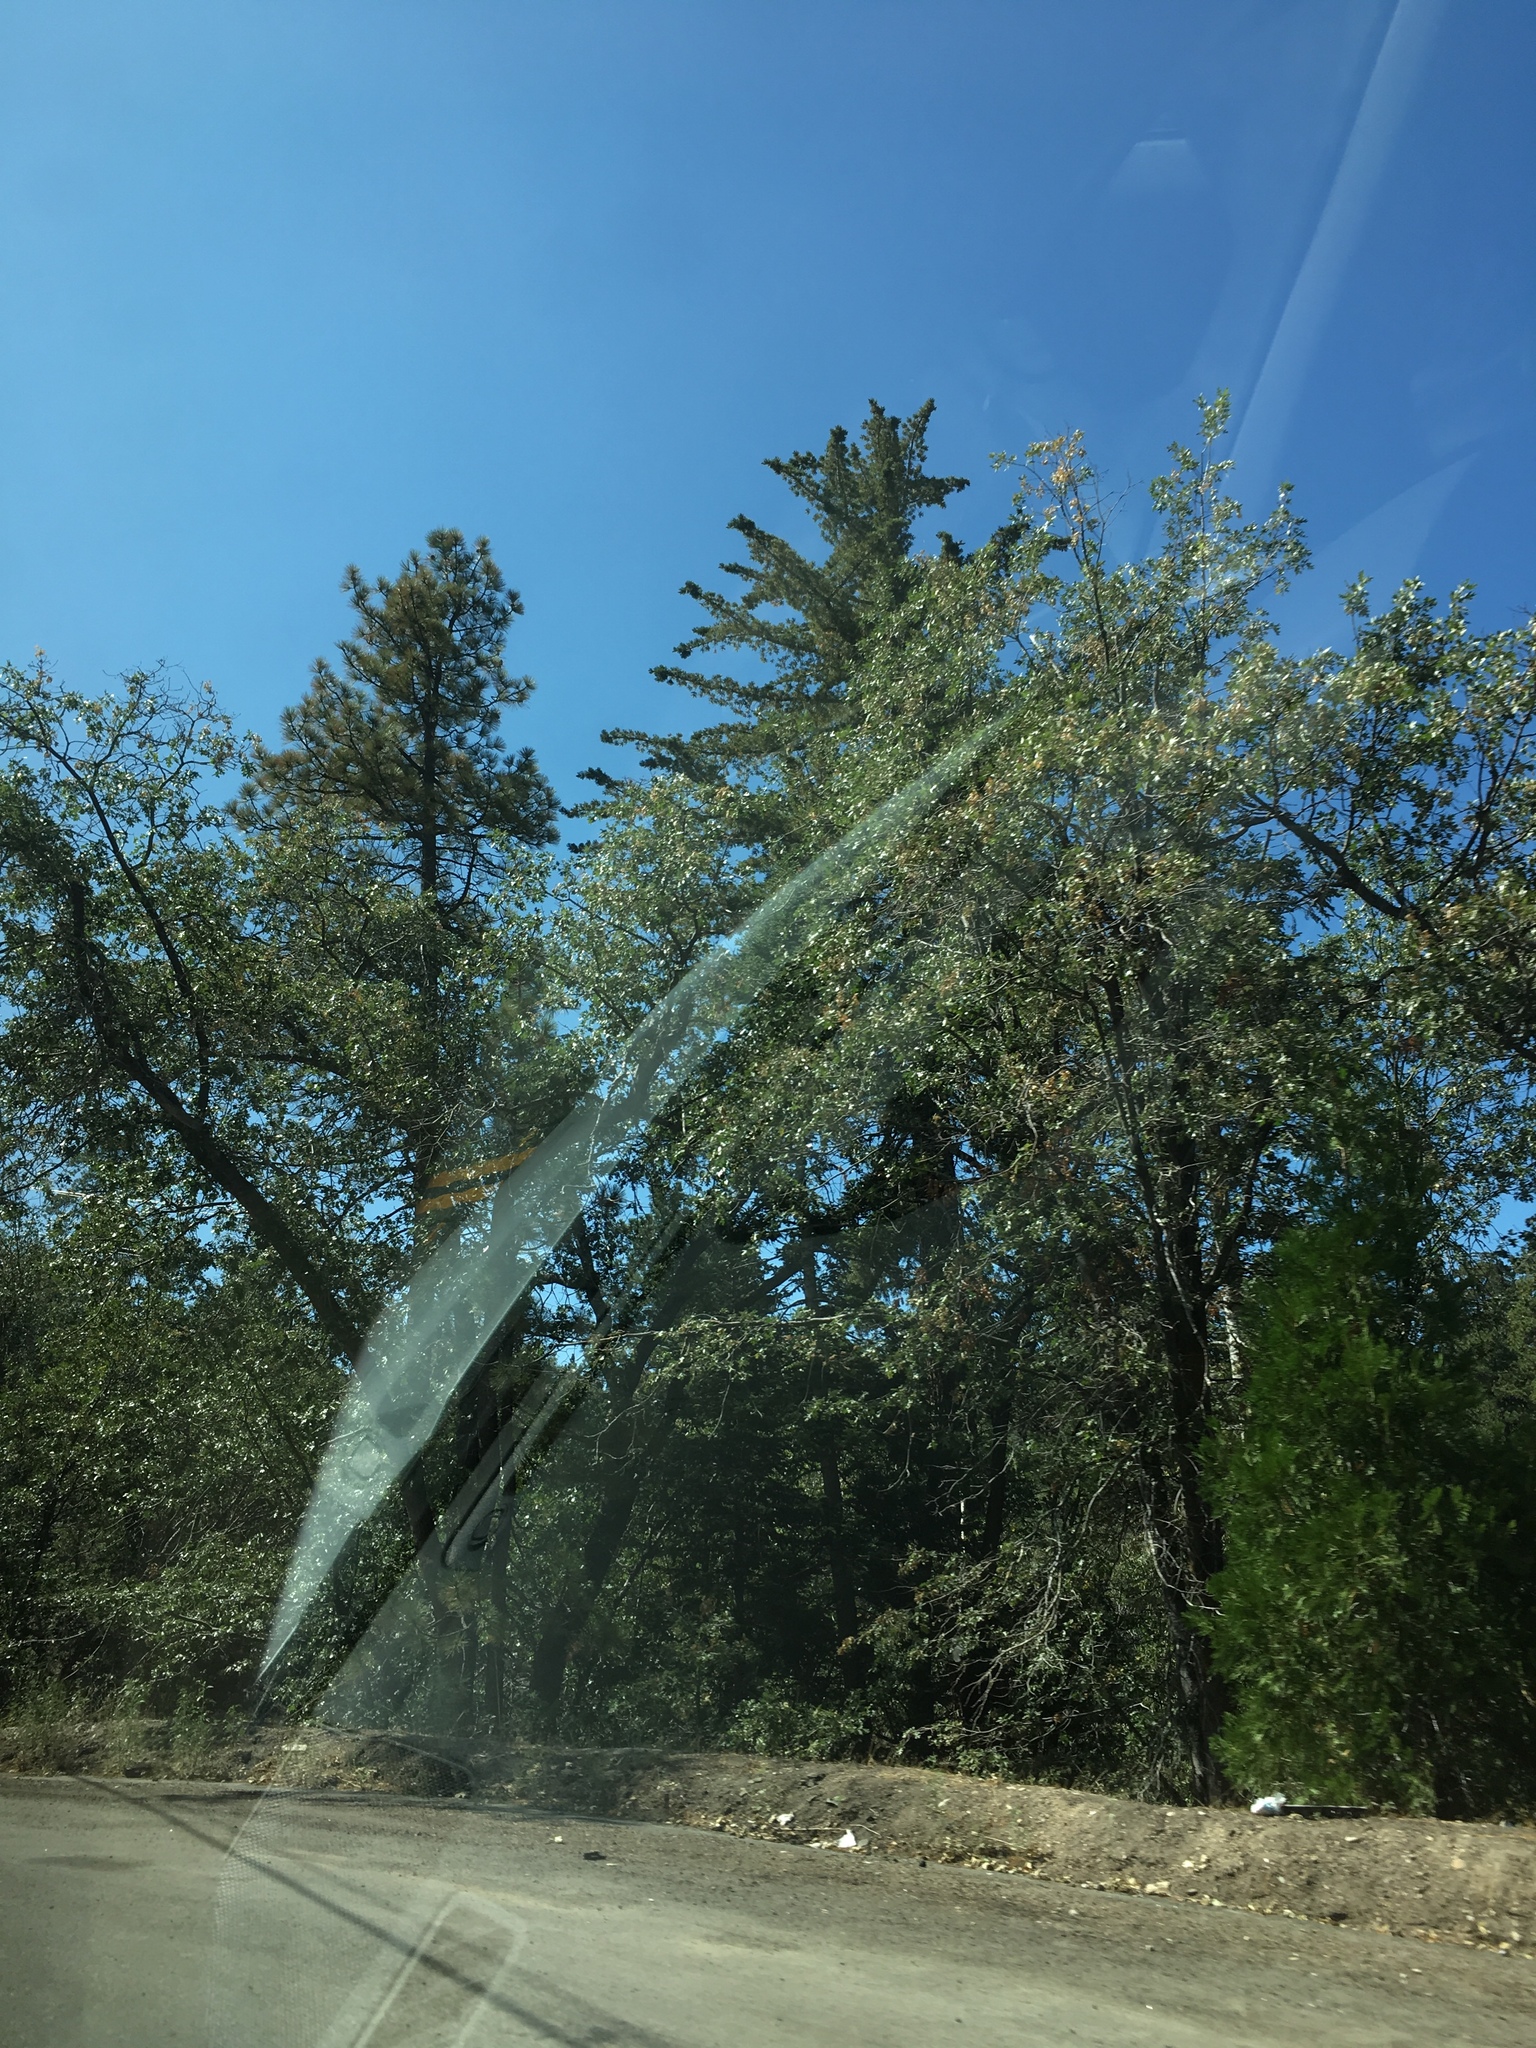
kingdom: Plantae
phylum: Tracheophyta
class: Pinopsida
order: Pinales
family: Cupressaceae
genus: Calocedrus
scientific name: Calocedrus decurrens
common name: Californian incense-cedar
